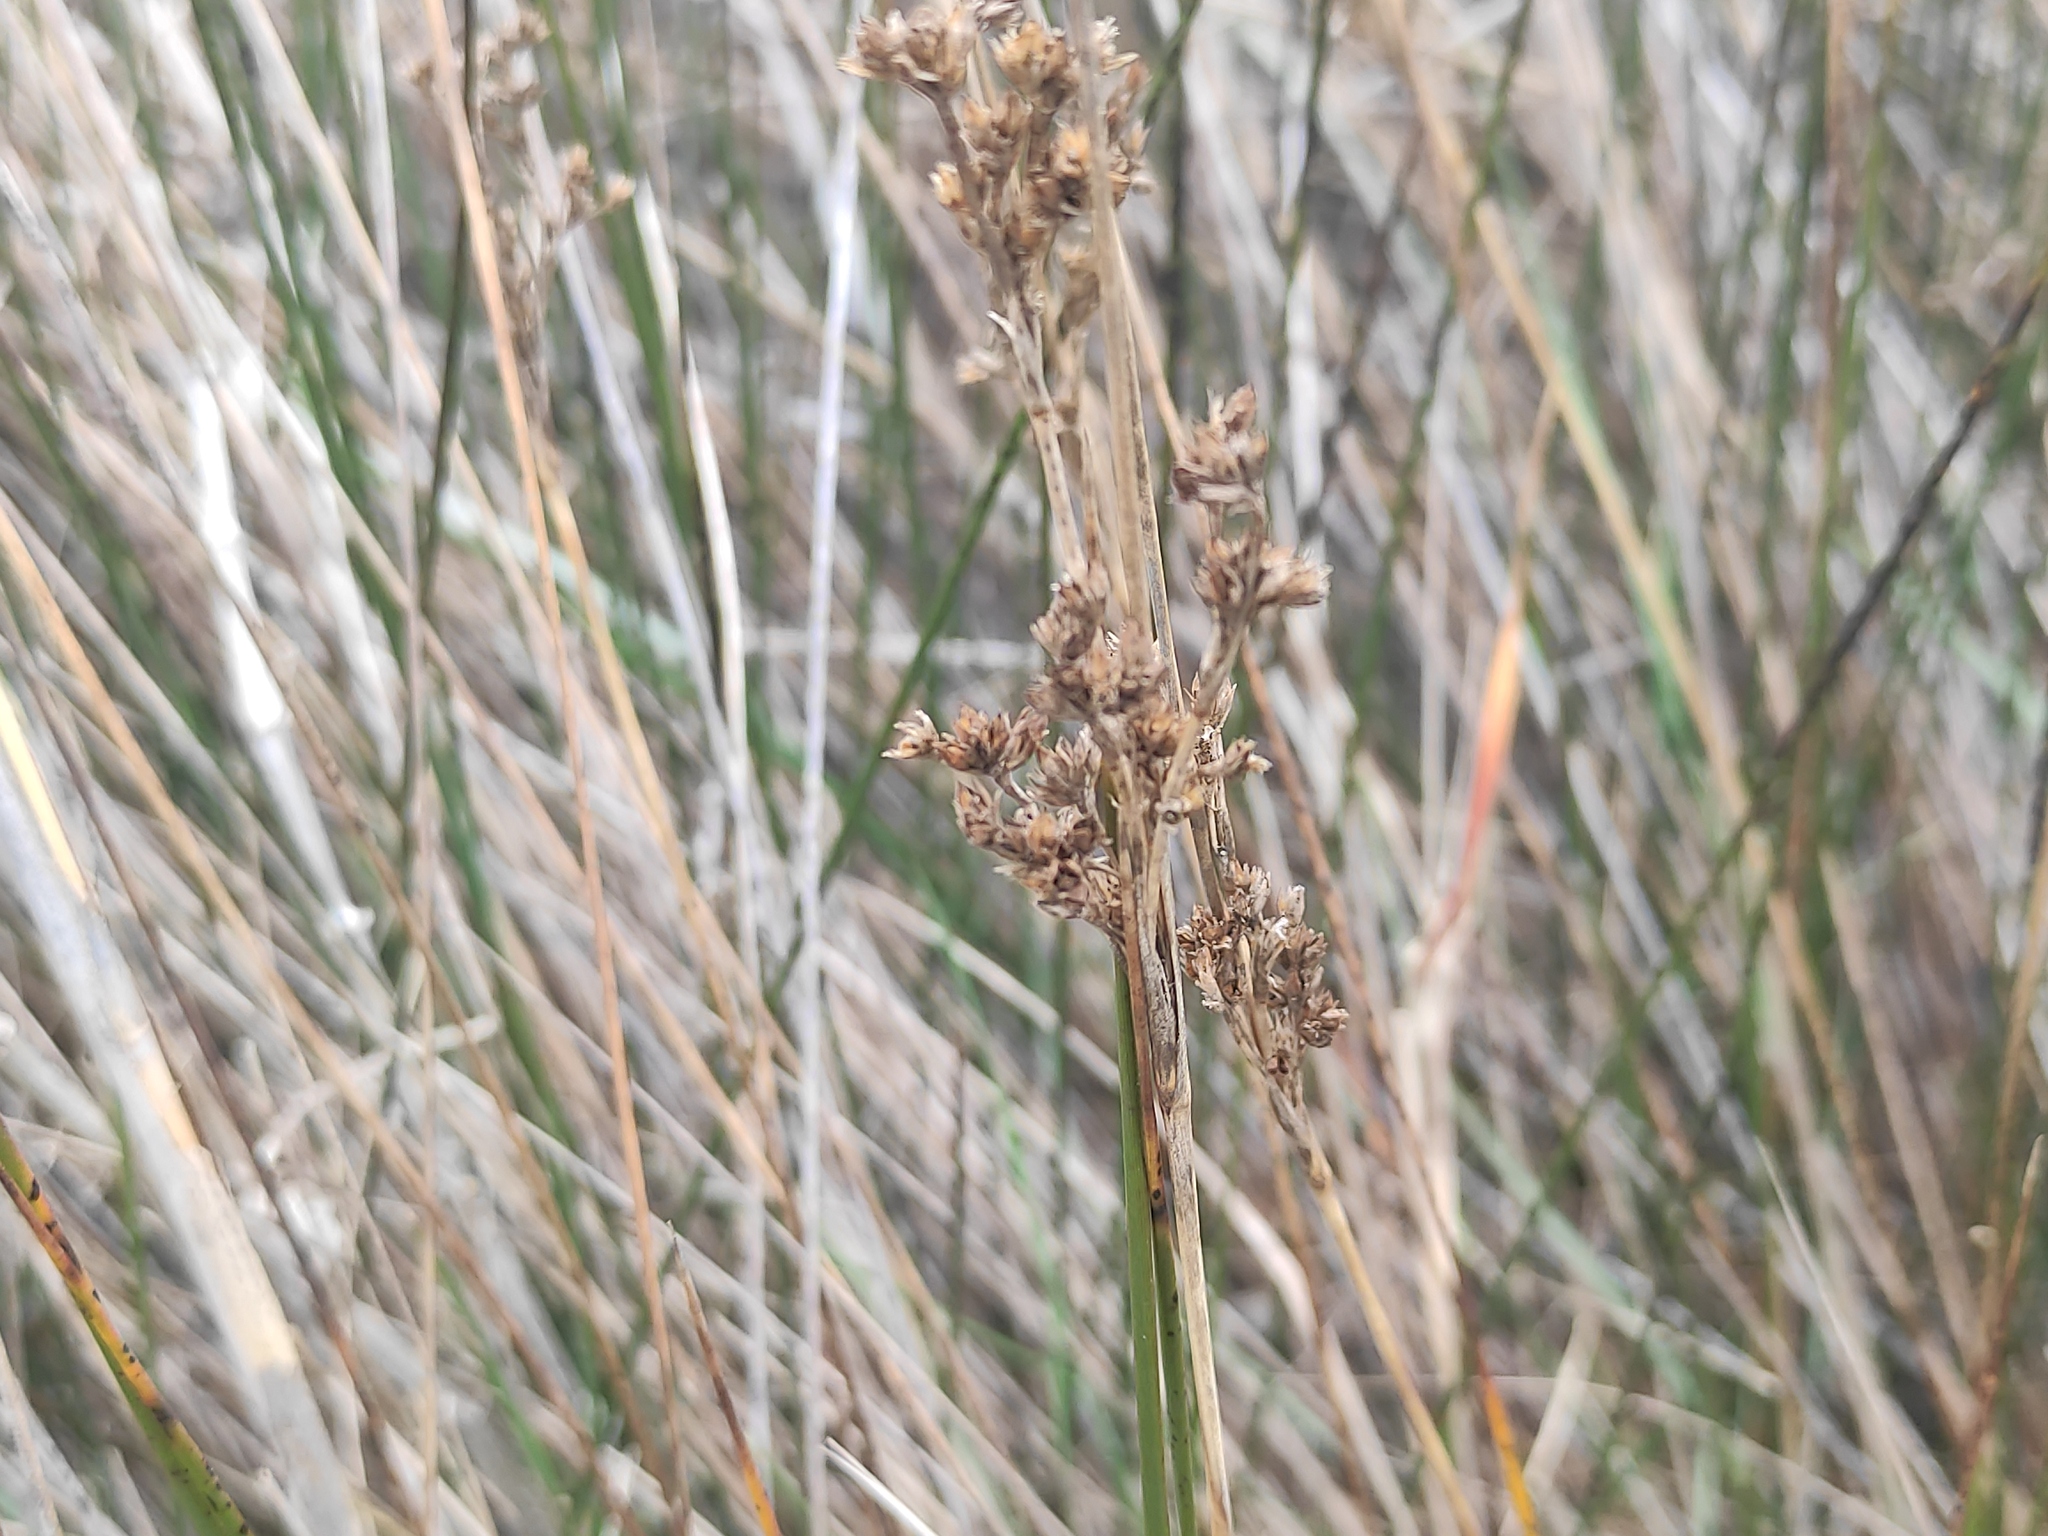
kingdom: Plantae
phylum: Tracheophyta
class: Liliopsida
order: Poales
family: Juncaceae
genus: Juncus
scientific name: Juncus maritimus
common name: Sea rush
